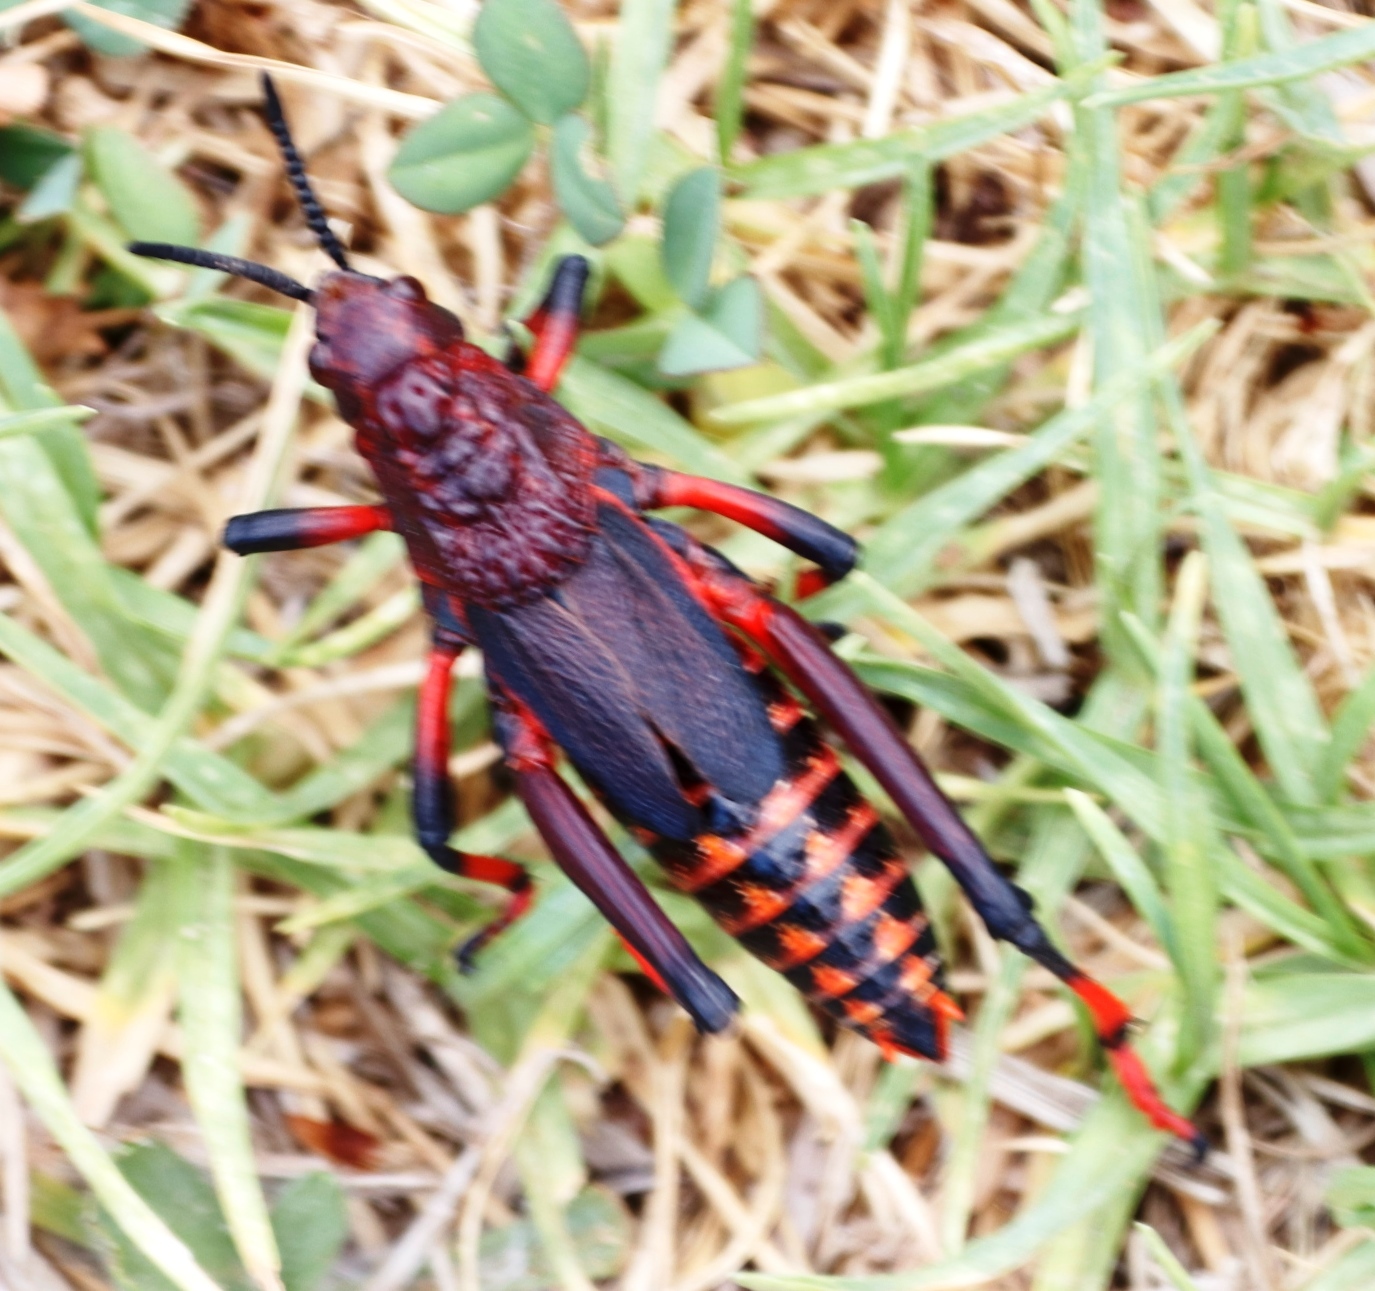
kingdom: Animalia
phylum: Arthropoda
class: Insecta
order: Orthoptera
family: Pyrgomorphidae
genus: Dictyophorus
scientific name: Dictyophorus spumans
